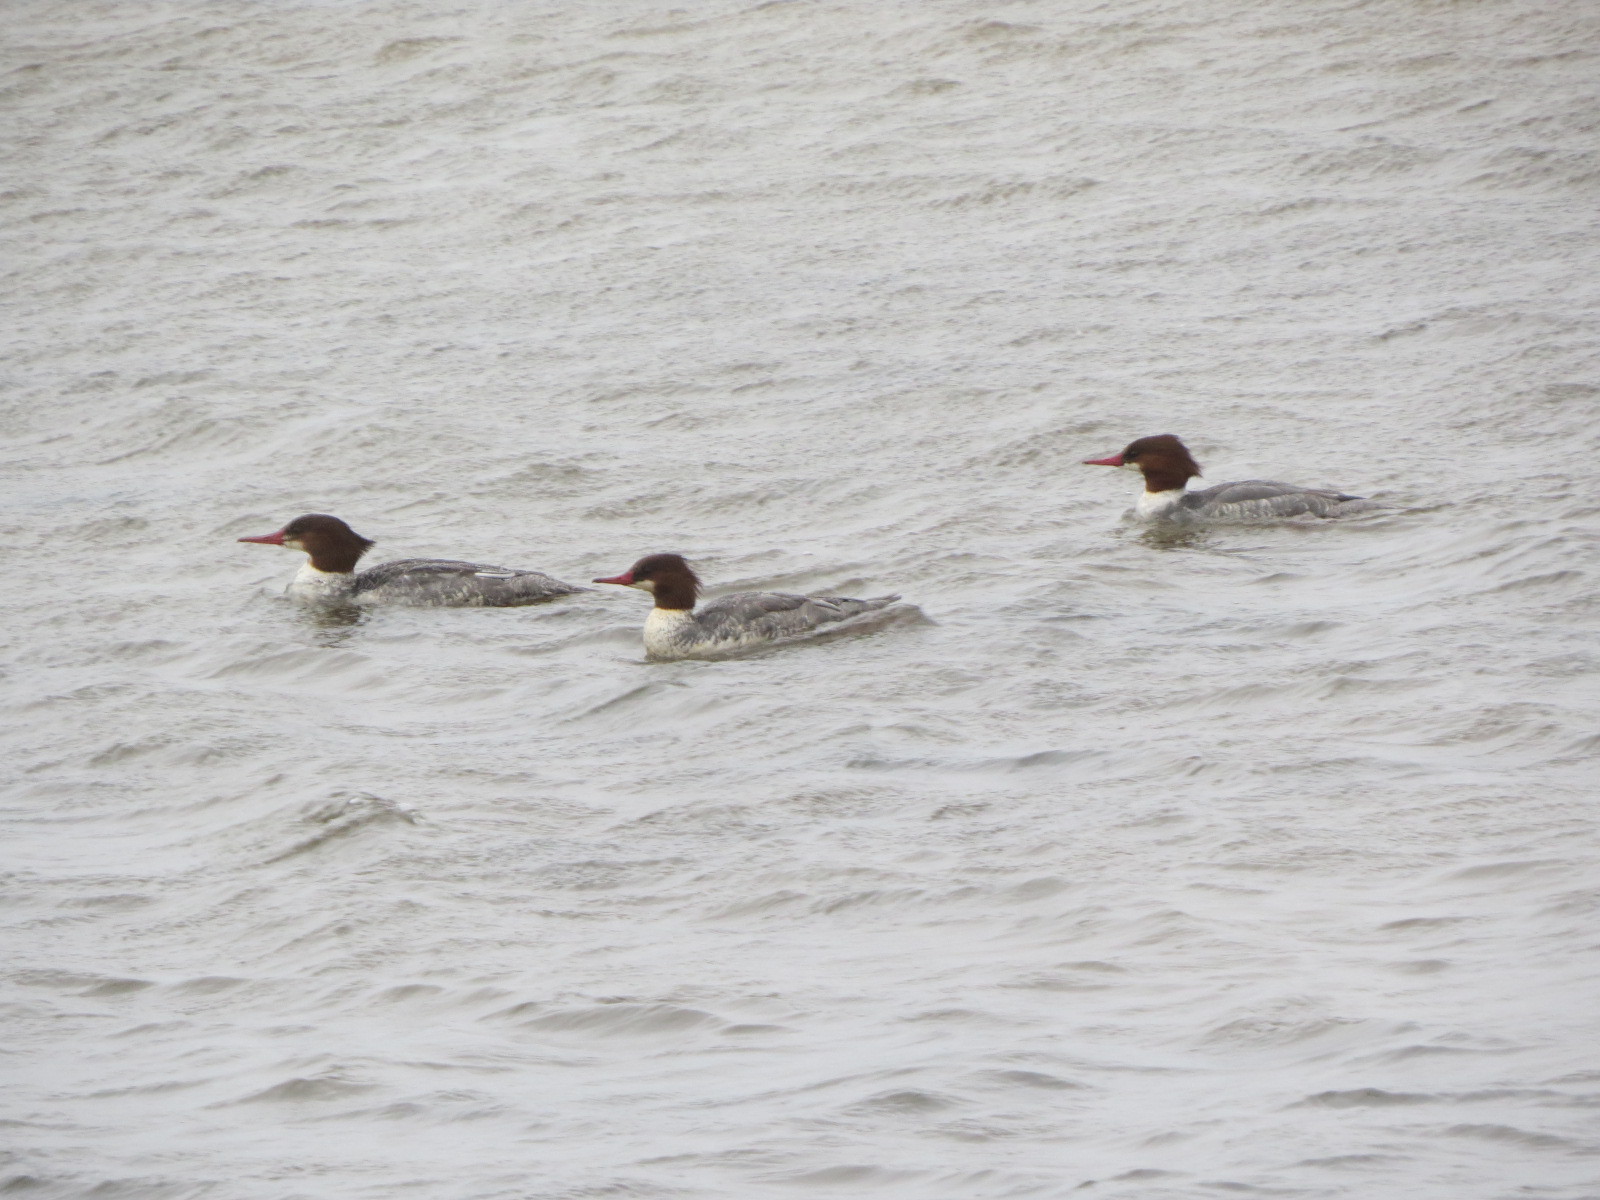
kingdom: Animalia
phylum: Chordata
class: Aves
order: Anseriformes
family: Anatidae
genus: Mergus
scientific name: Mergus merganser
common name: Common merganser
